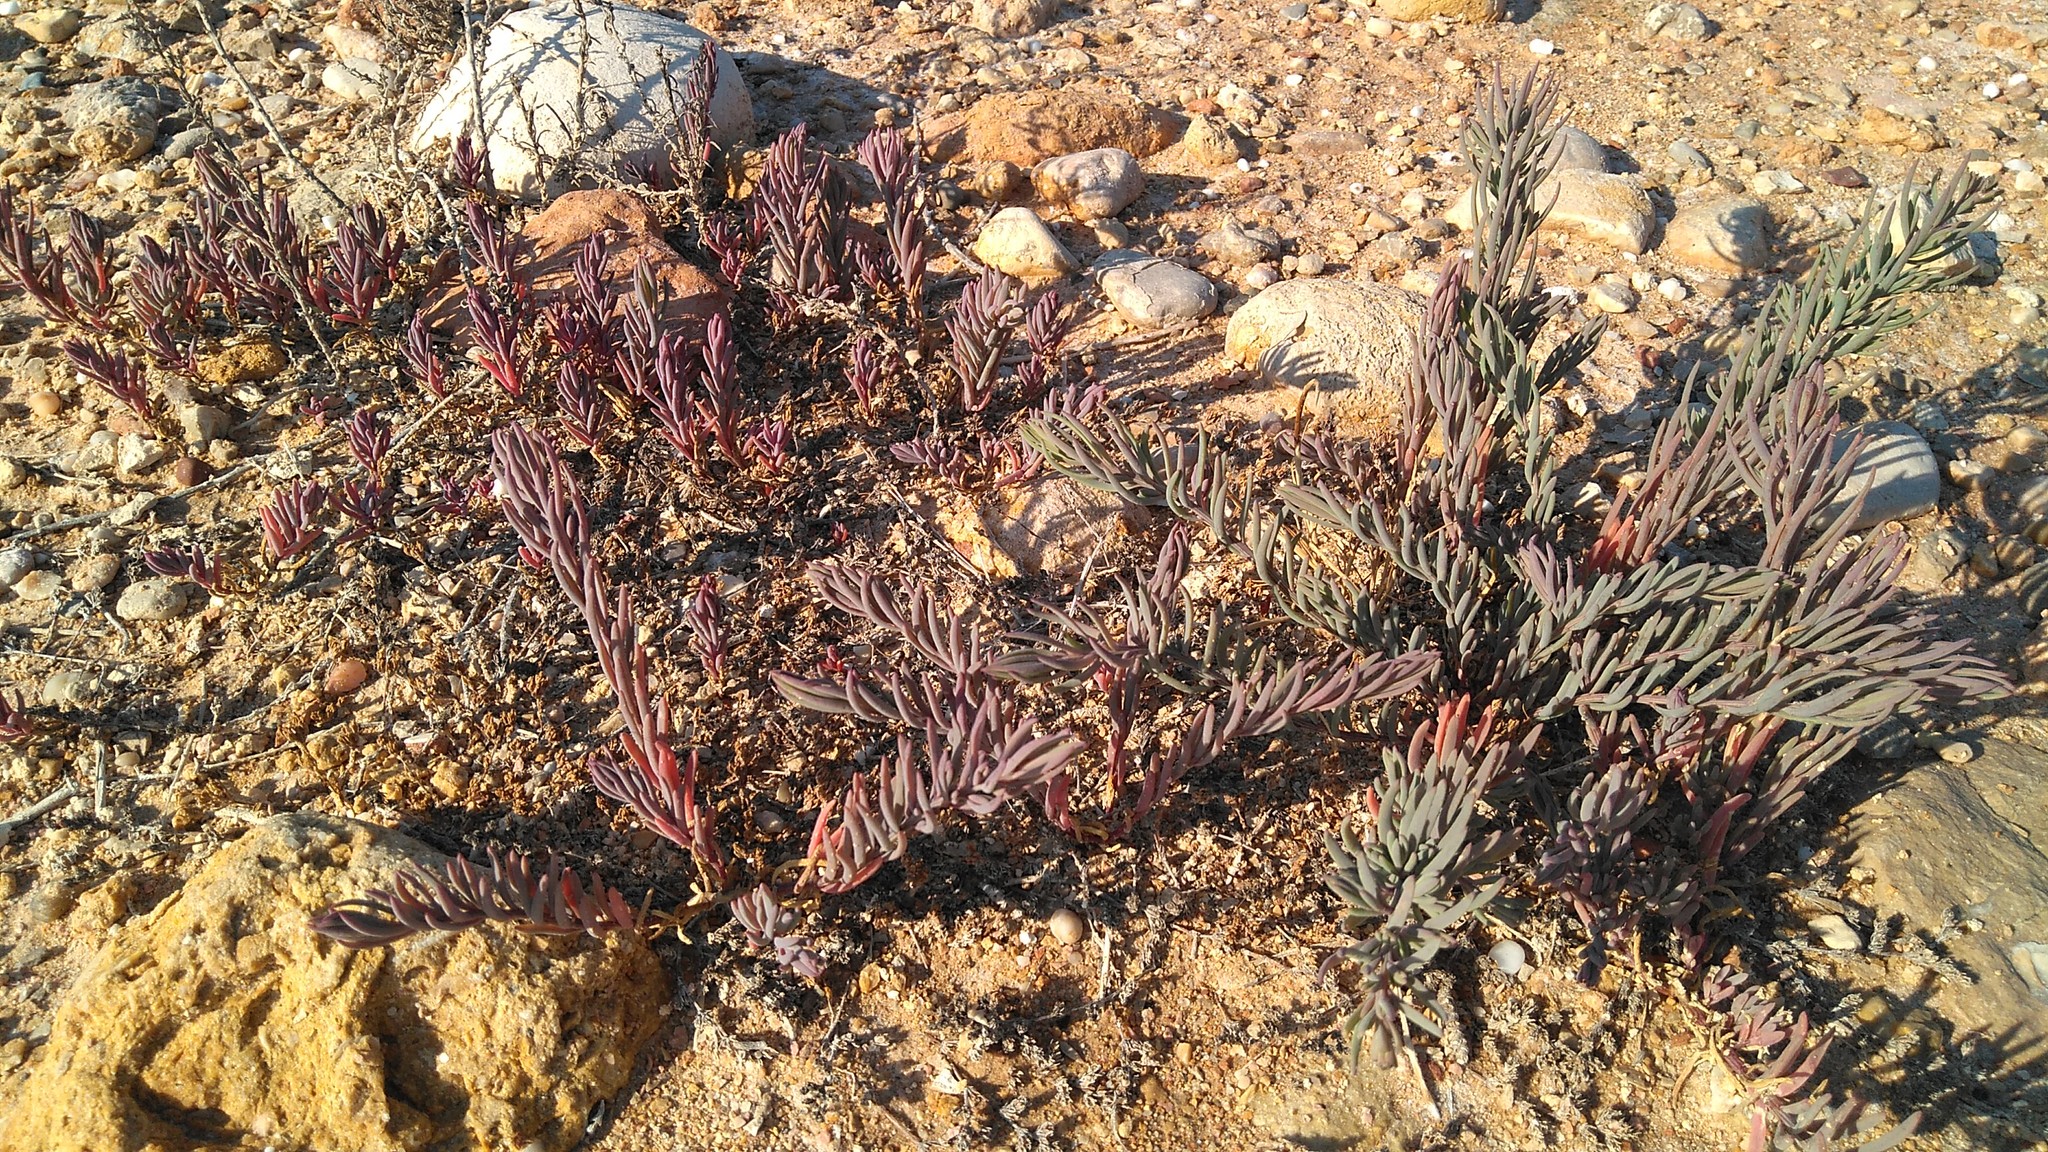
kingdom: Plantae
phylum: Tracheophyta
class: Magnoliopsida
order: Caryophyllales
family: Amaranthaceae
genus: Suaeda
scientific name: Suaeda spicata
